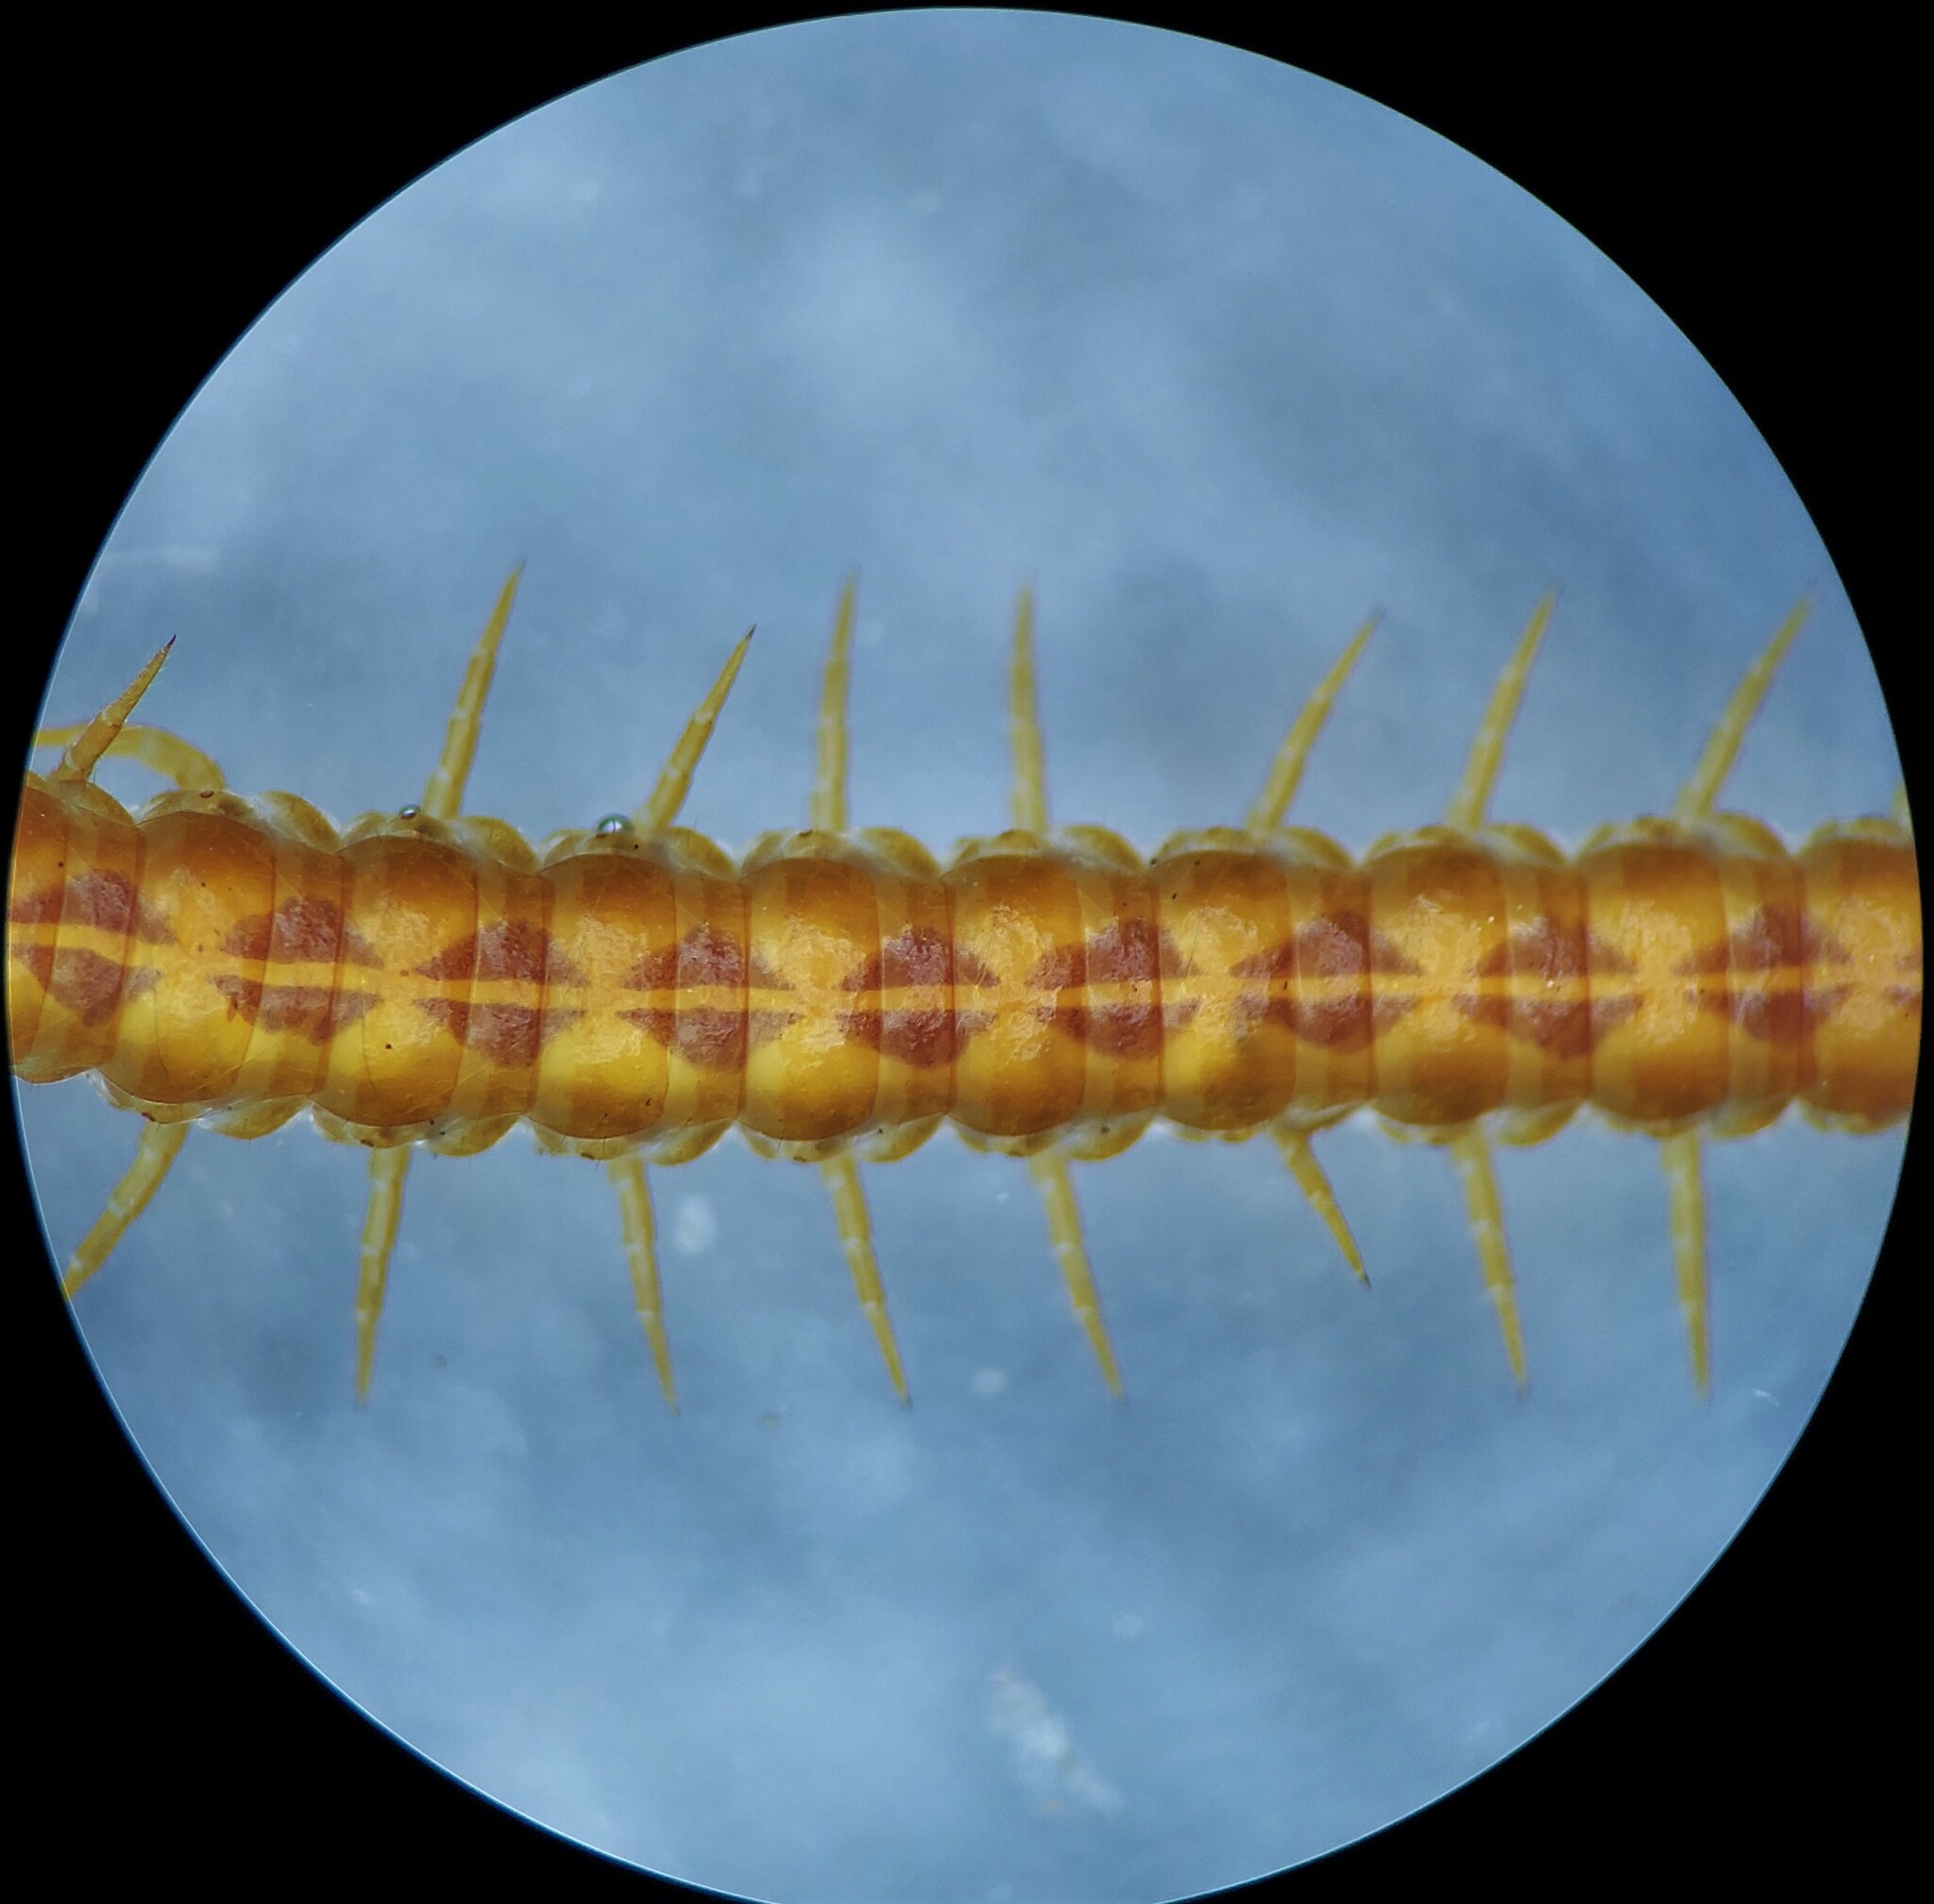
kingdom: Animalia
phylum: Arthropoda
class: Chilopoda
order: Geophilomorpha
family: Linotaeniidae
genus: Strigamia
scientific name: Strigamia branneri
